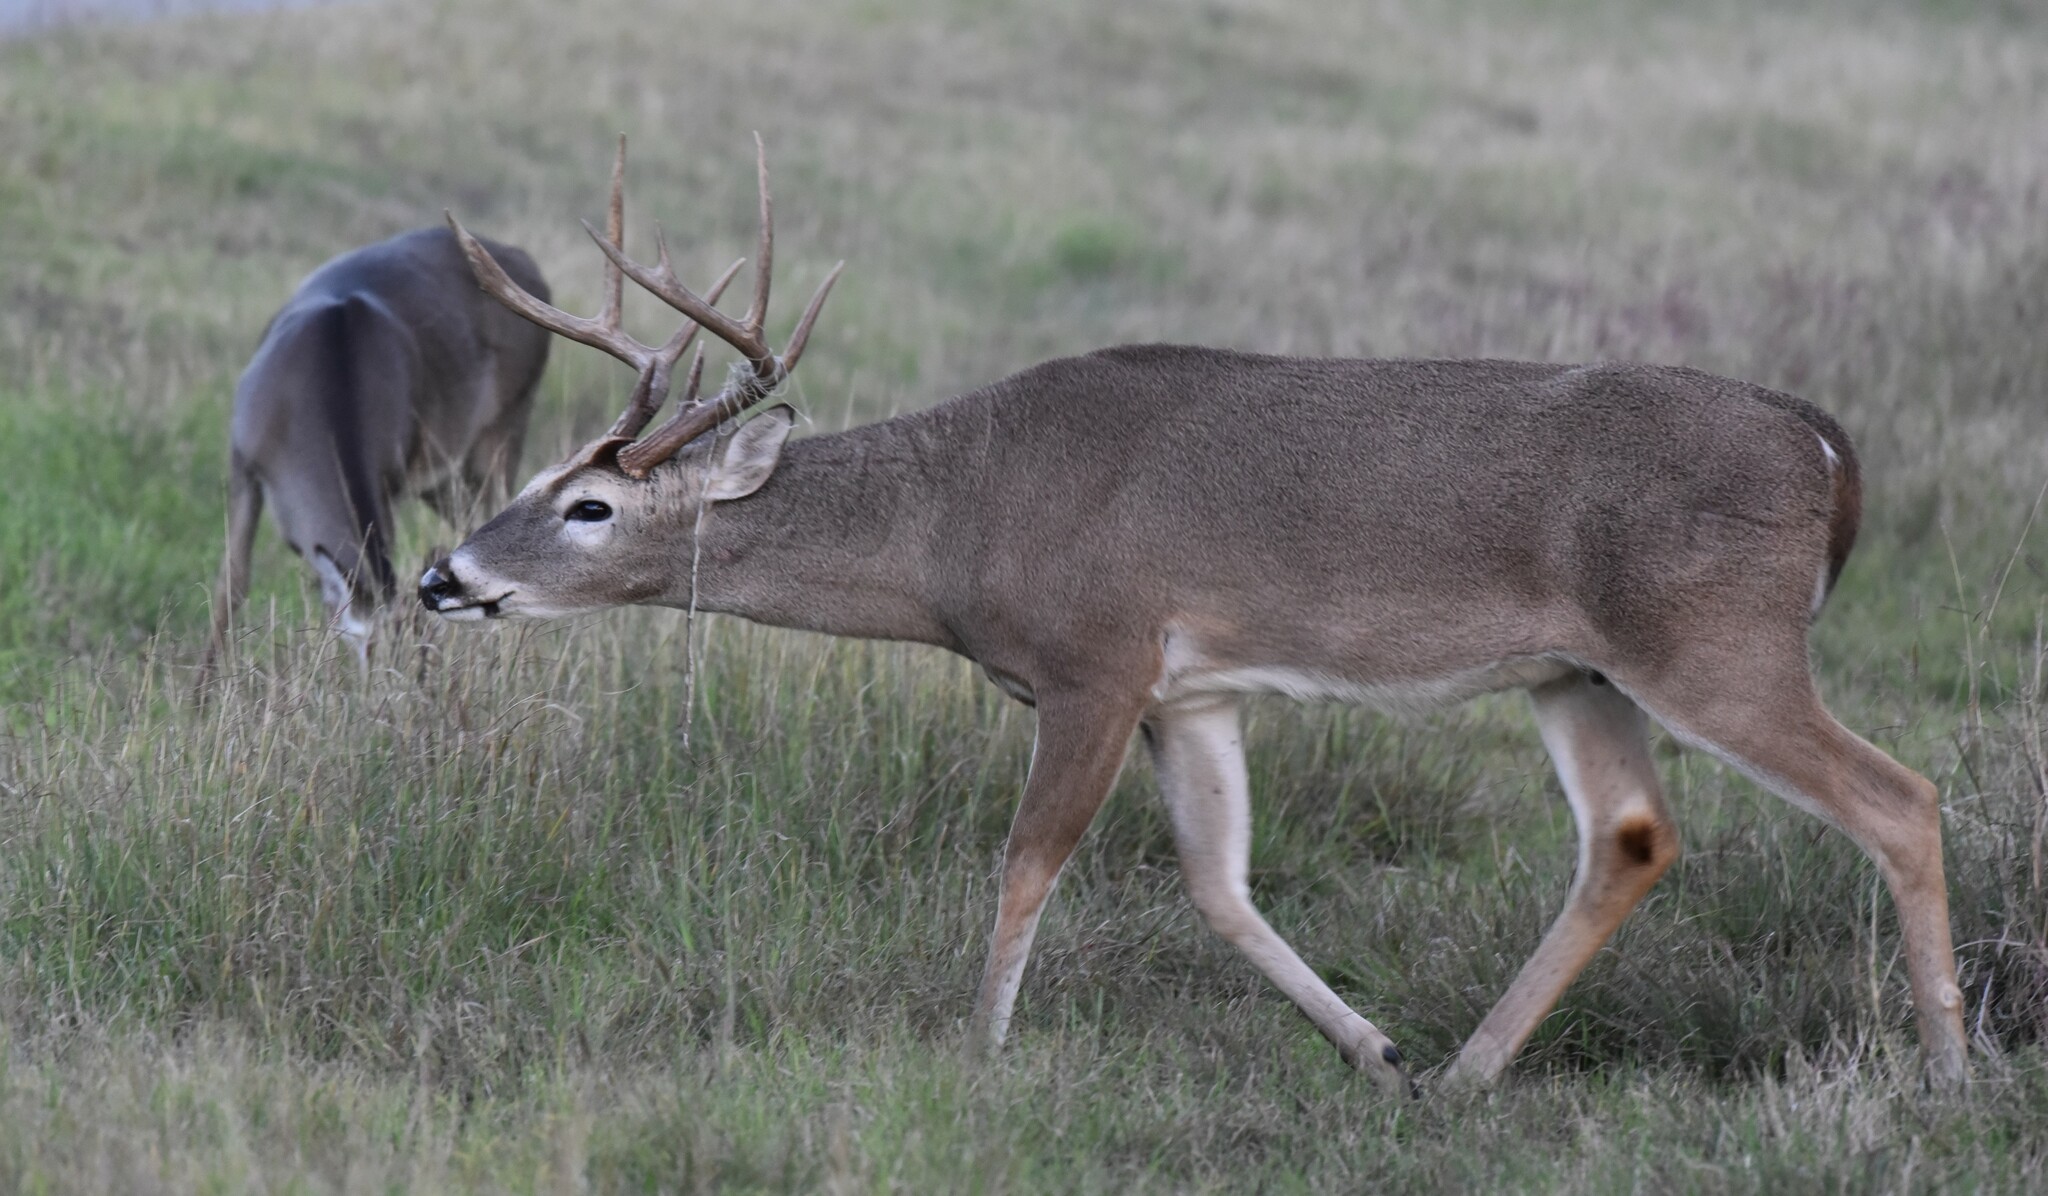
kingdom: Animalia
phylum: Chordata
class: Mammalia
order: Artiodactyla
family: Cervidae
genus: Odocoileus
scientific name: Odocoileus virginianus
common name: White-tailed deer
